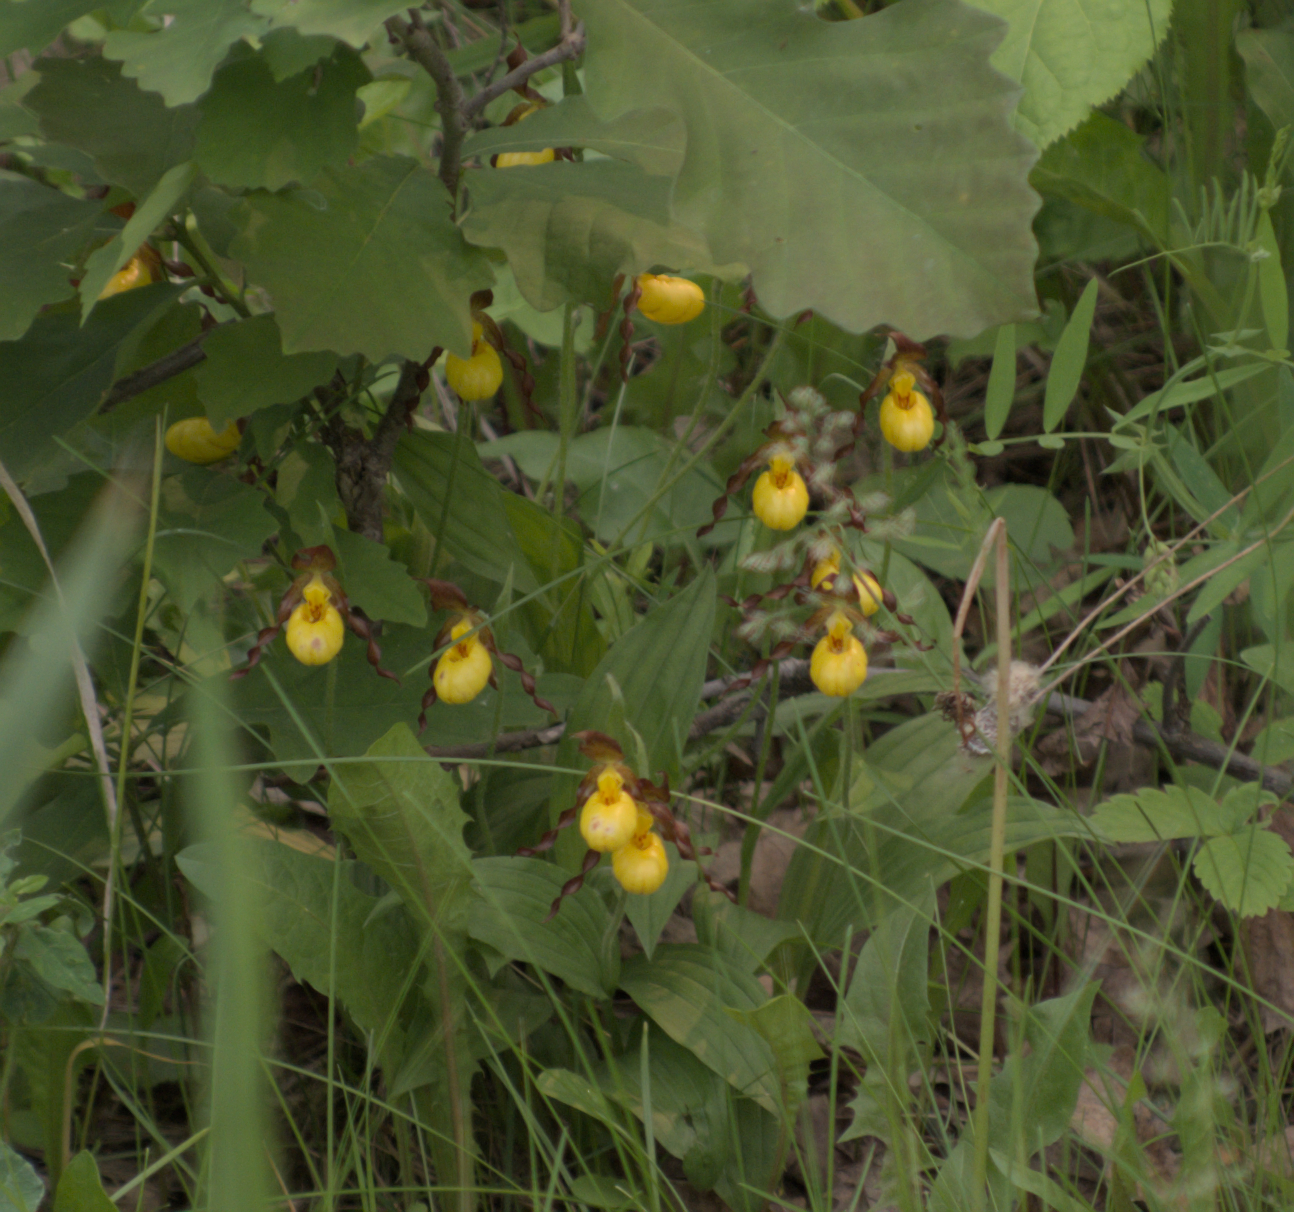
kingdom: Plantae
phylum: Tracheophyta
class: Liliopsida
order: Asparagales
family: Orchidaceae
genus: Cypripedium
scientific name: Cypripedium parviflorum
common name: American yellow lady's-slipper
